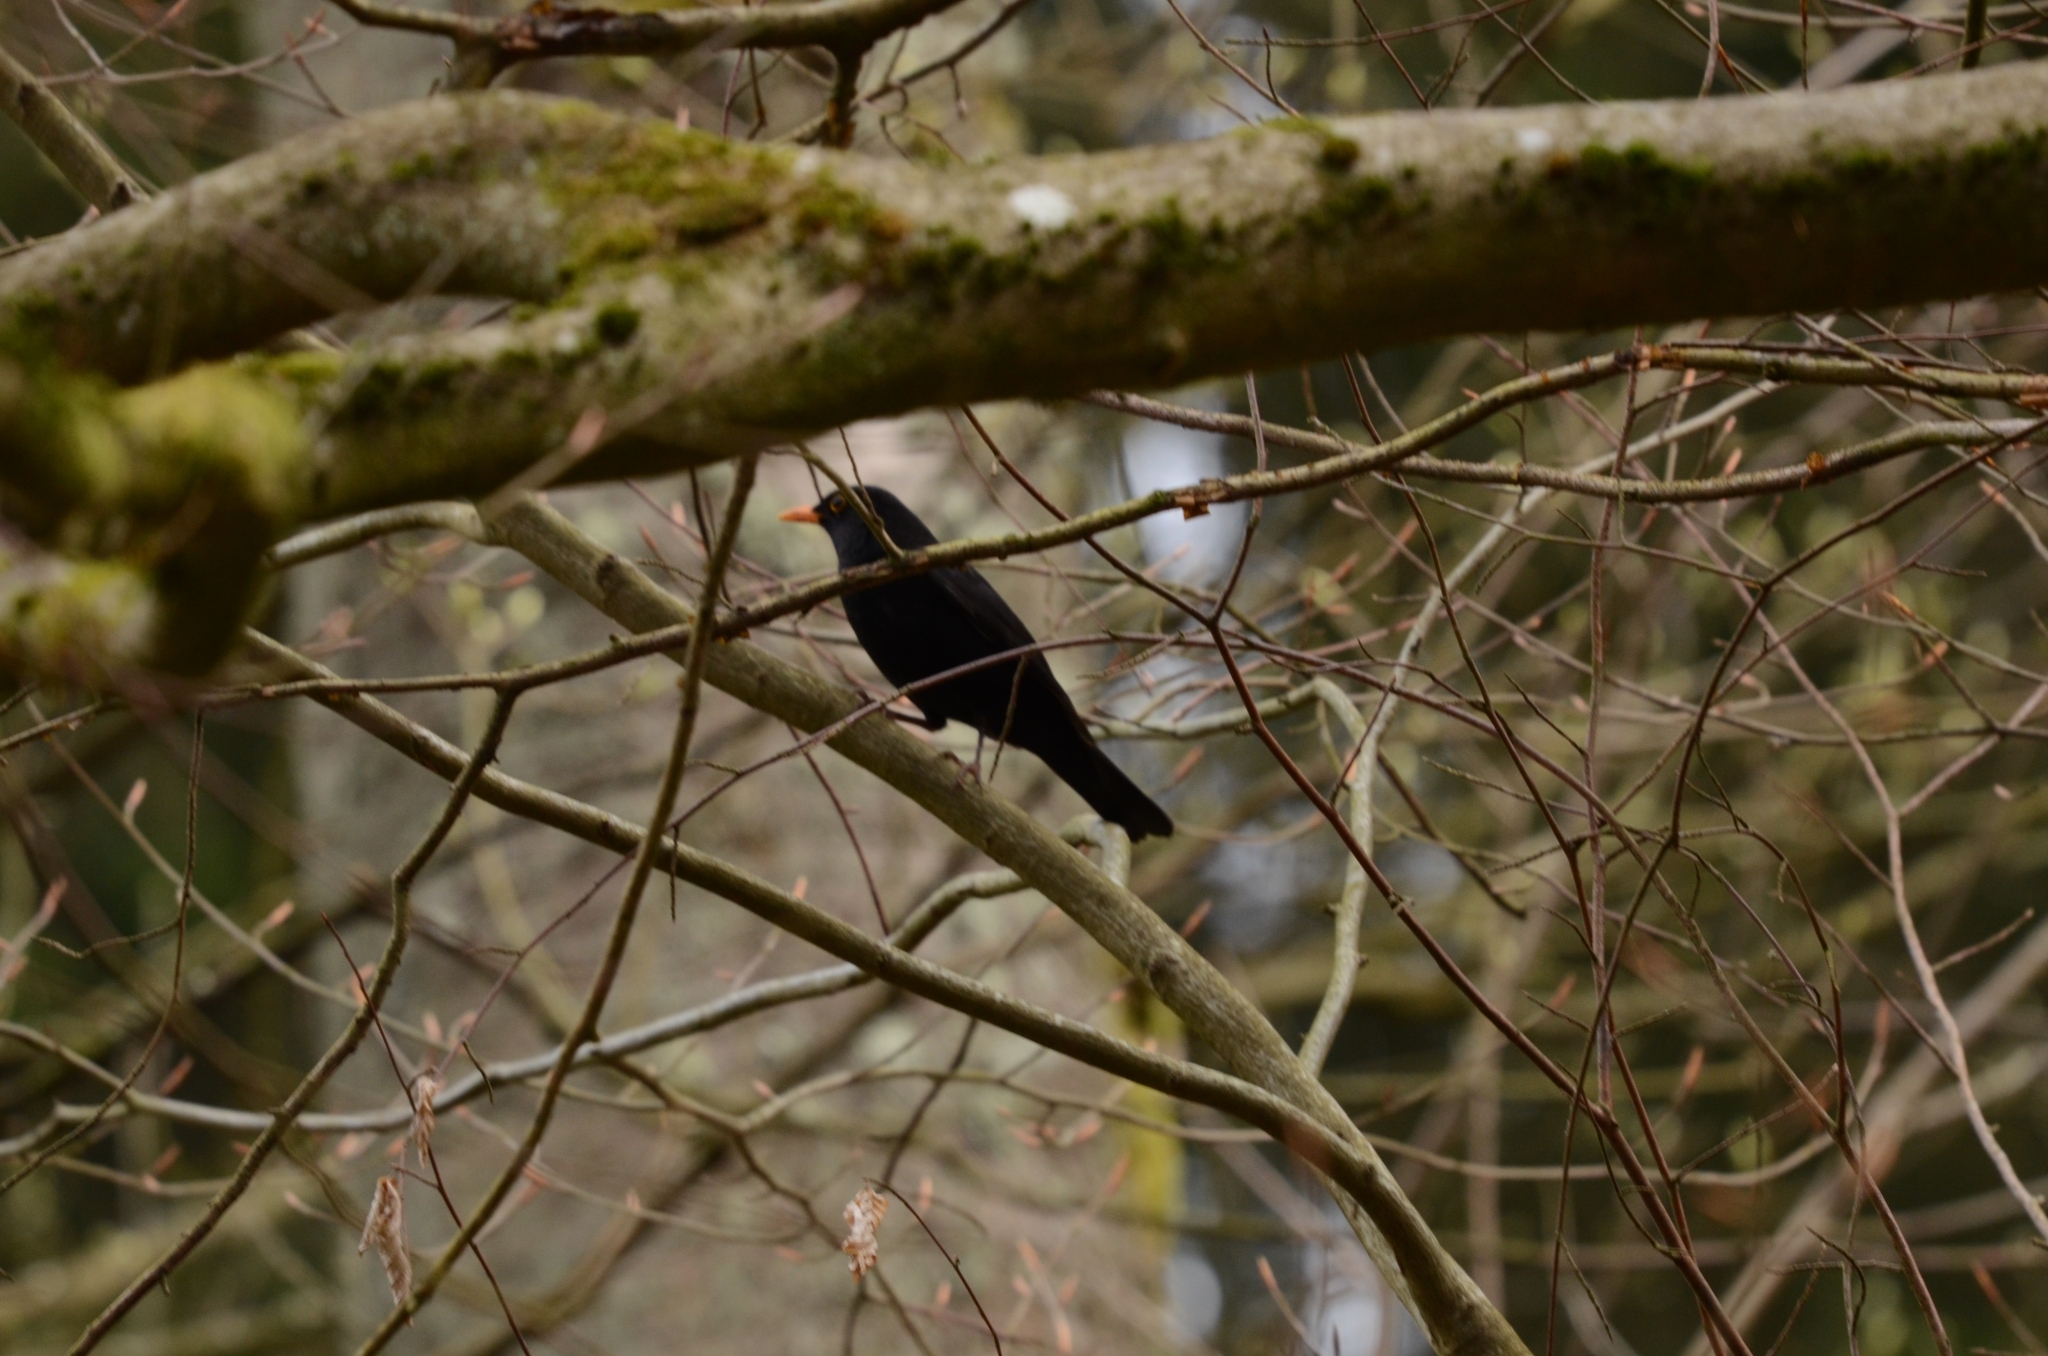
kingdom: Animalia
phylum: Chordata
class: Aves
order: Passeriformes
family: Turdidae
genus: Turdus
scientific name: Turdus merula
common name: Common blackbird
